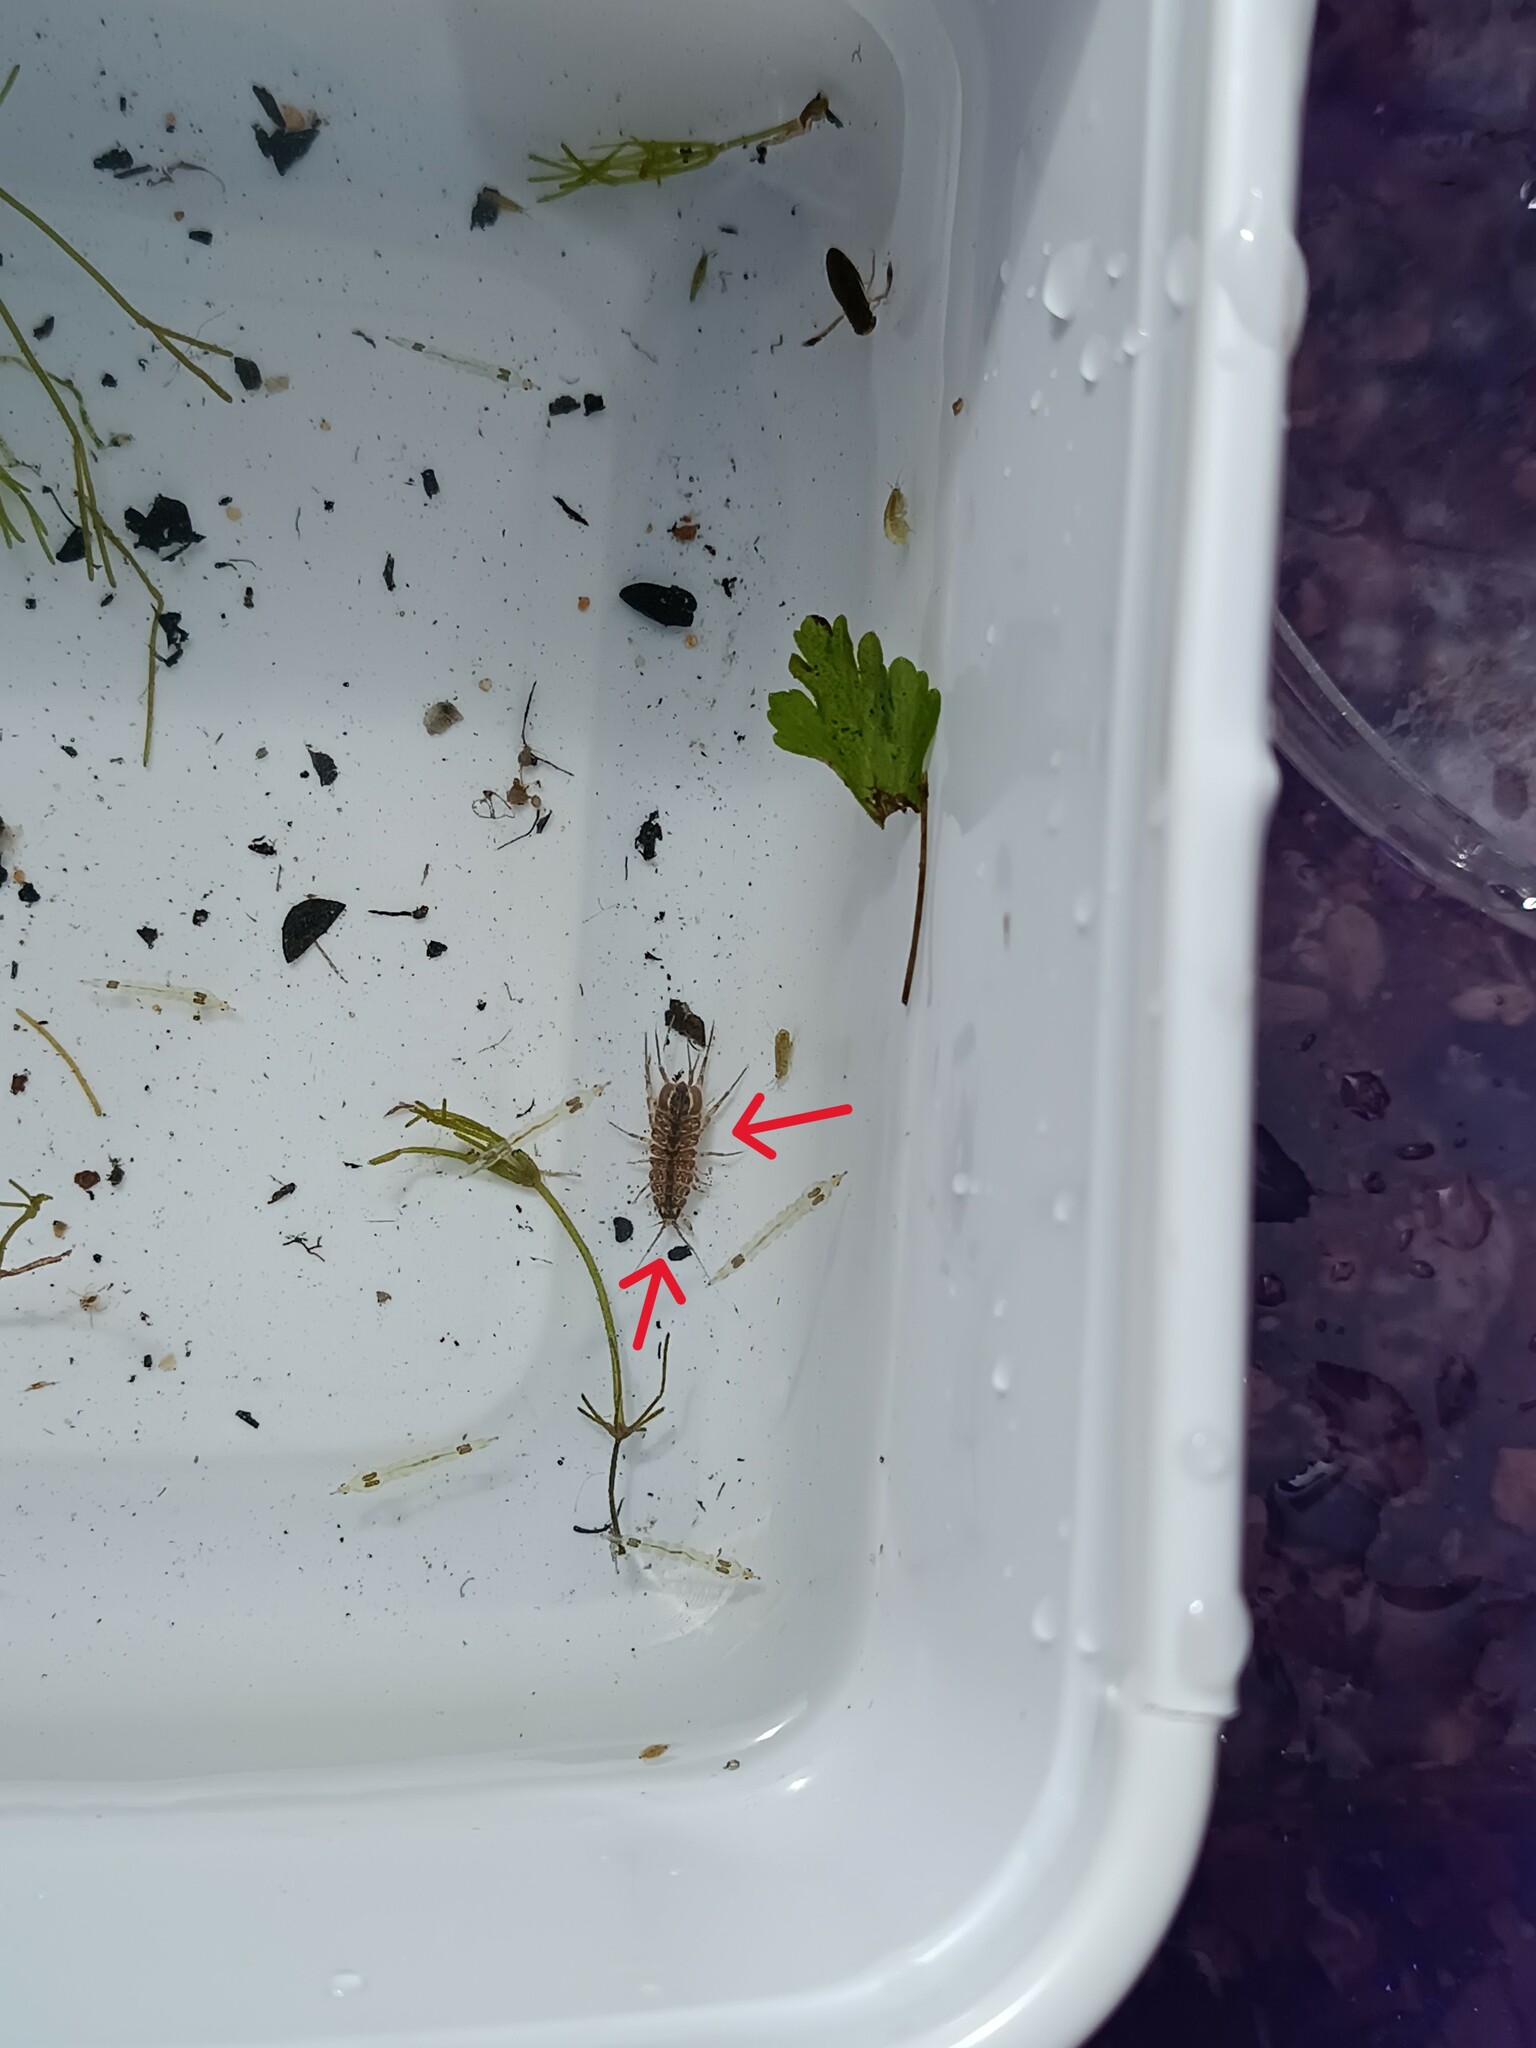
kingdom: Animalia
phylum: Arthropoda
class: Malacostraca
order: Isopoda
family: Asellidae
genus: Asellus
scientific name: Asellus aquaticus
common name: Water hog lice/slaters
